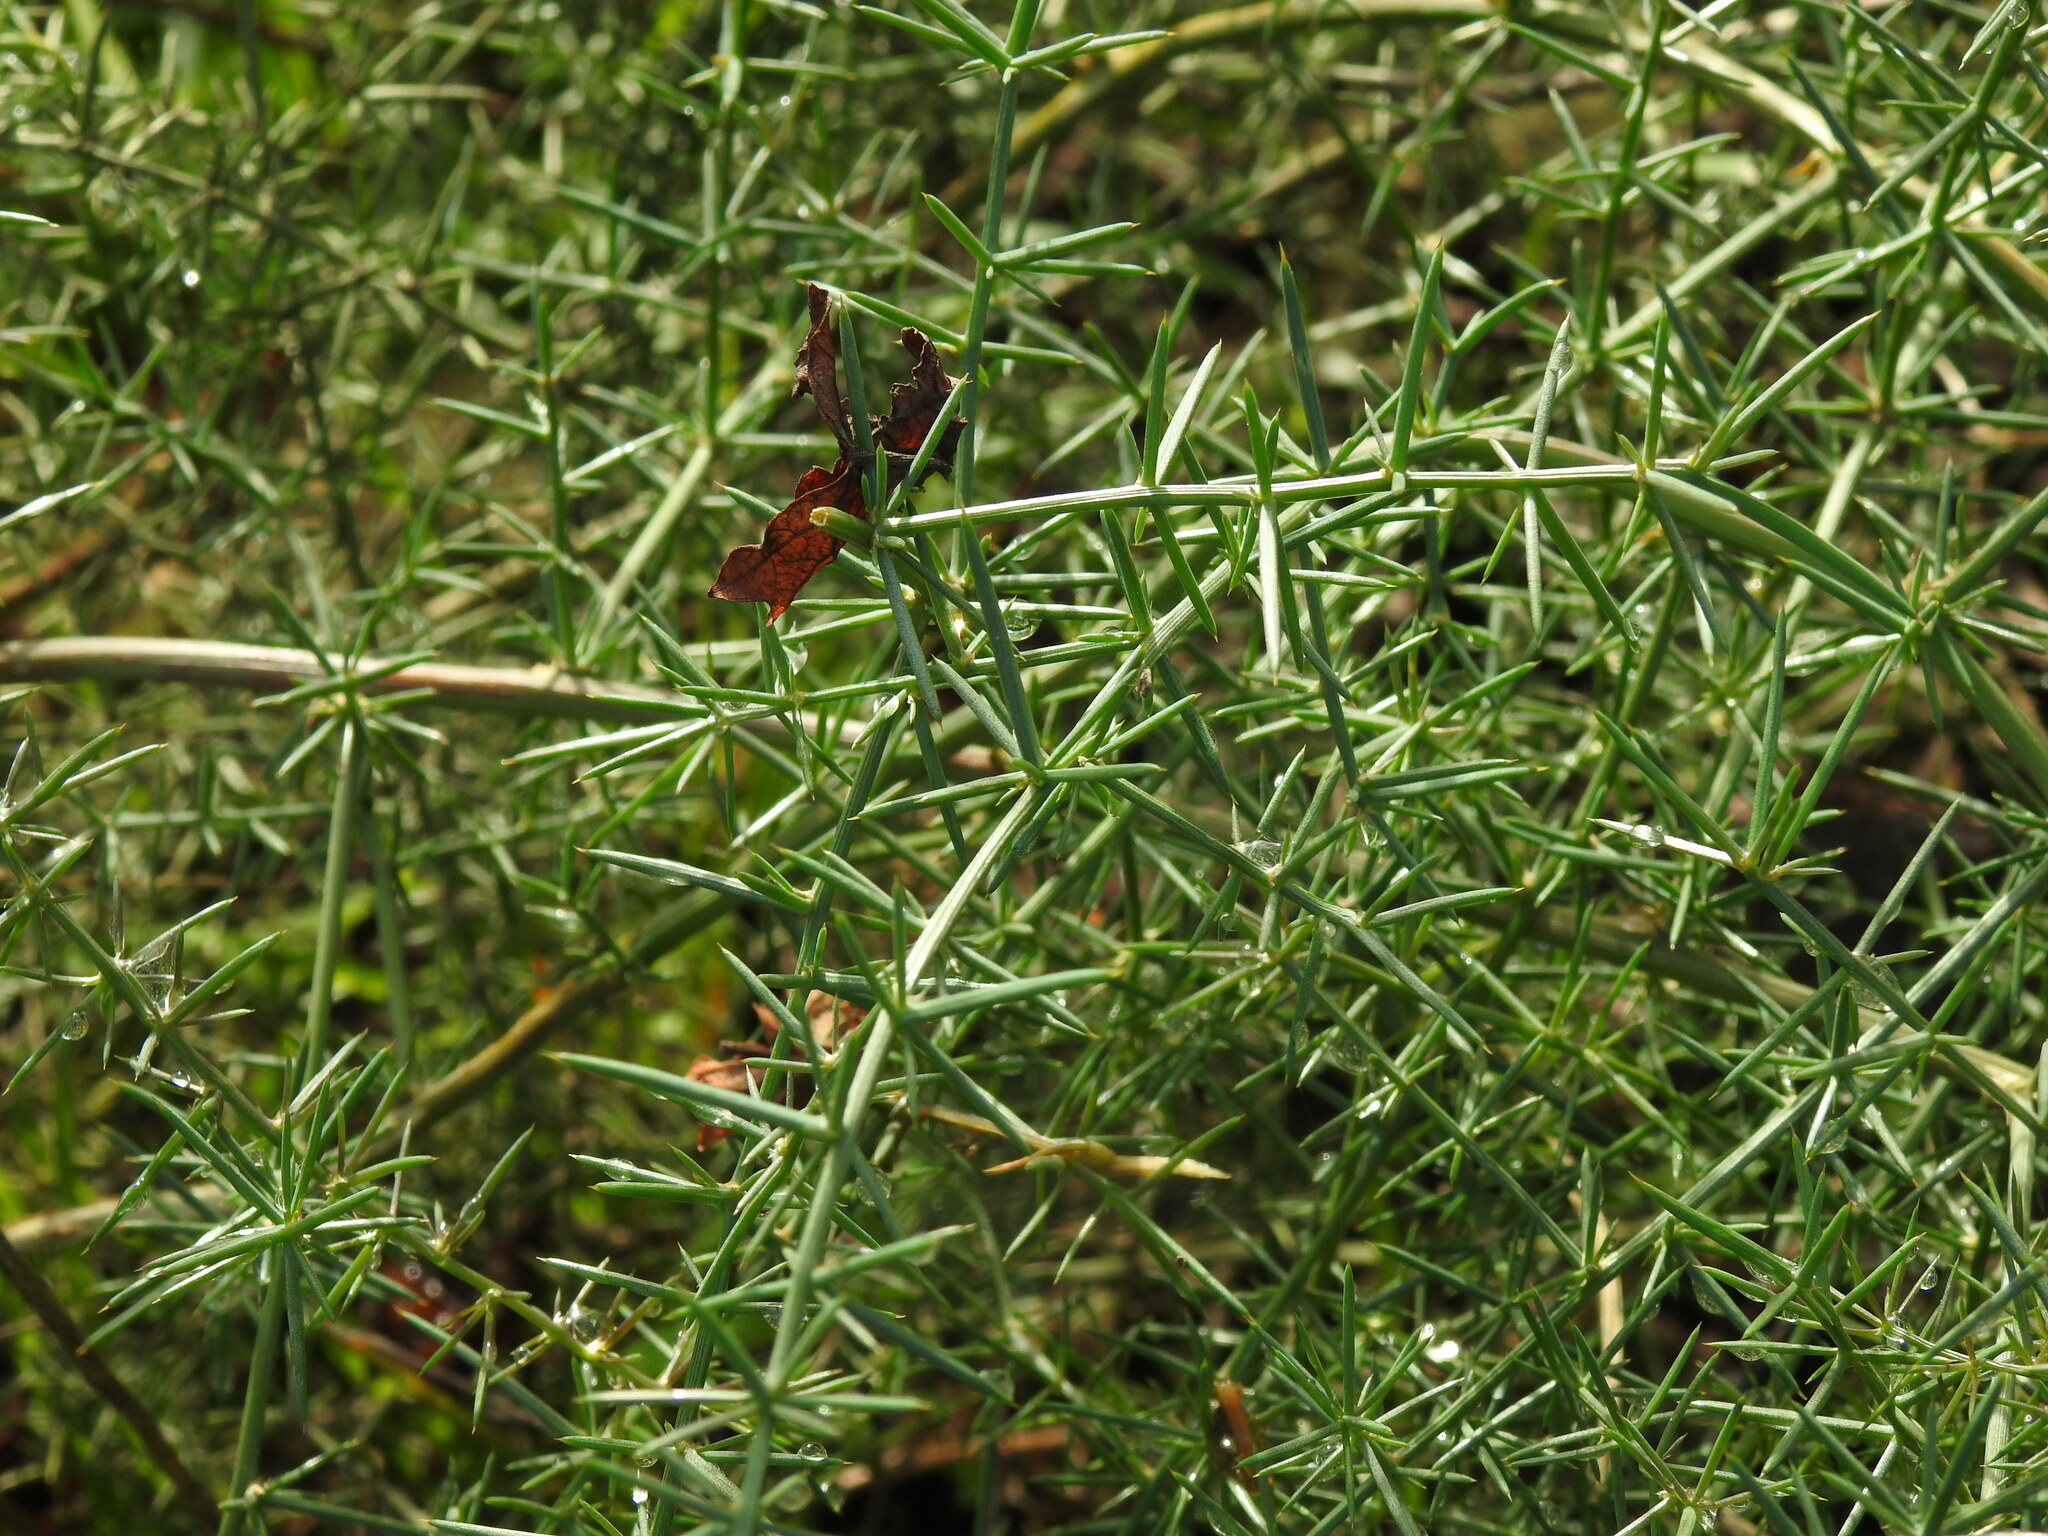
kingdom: Plantae
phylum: Tracheophyta
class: Liliopsida
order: Asparagales
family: Asparagaceae
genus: Asparagus
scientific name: Asparagus aphyllus
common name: Mediterranean asparagus
